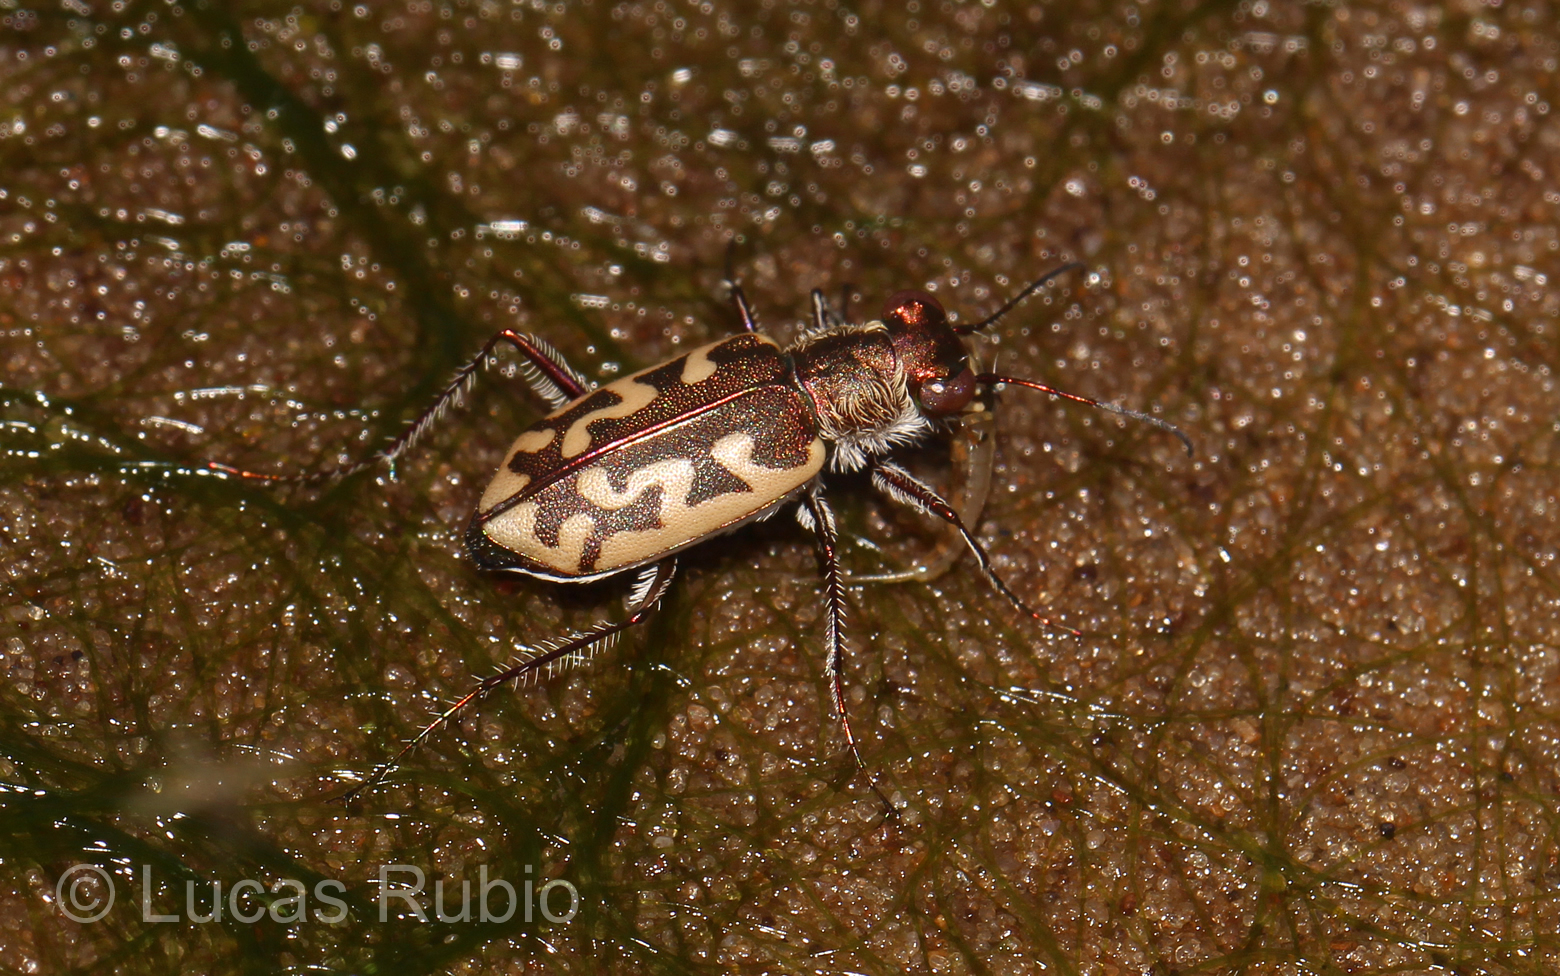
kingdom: Animalia
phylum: Arthropoda
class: Insecta
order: Coleoptera
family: Carabidae
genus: Cylindera
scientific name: Cylindera sinuosa
